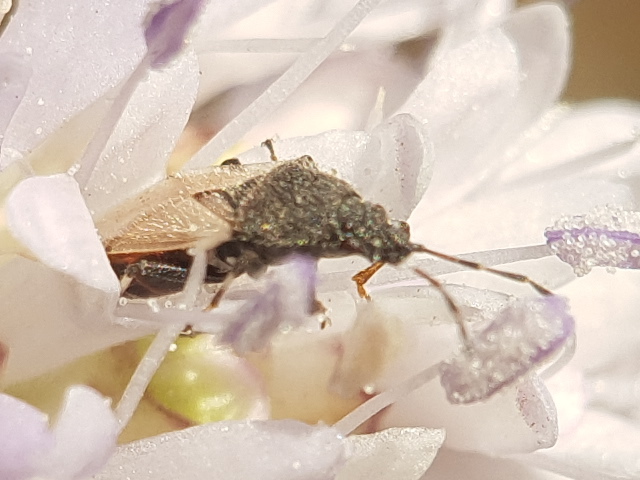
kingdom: Animalia
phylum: Arthropoda
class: Insecta
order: Hemiptera
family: Oxycarenidae
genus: Oxycarenus
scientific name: Oxycarenus hyalinipennis
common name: Cotton seed bug
